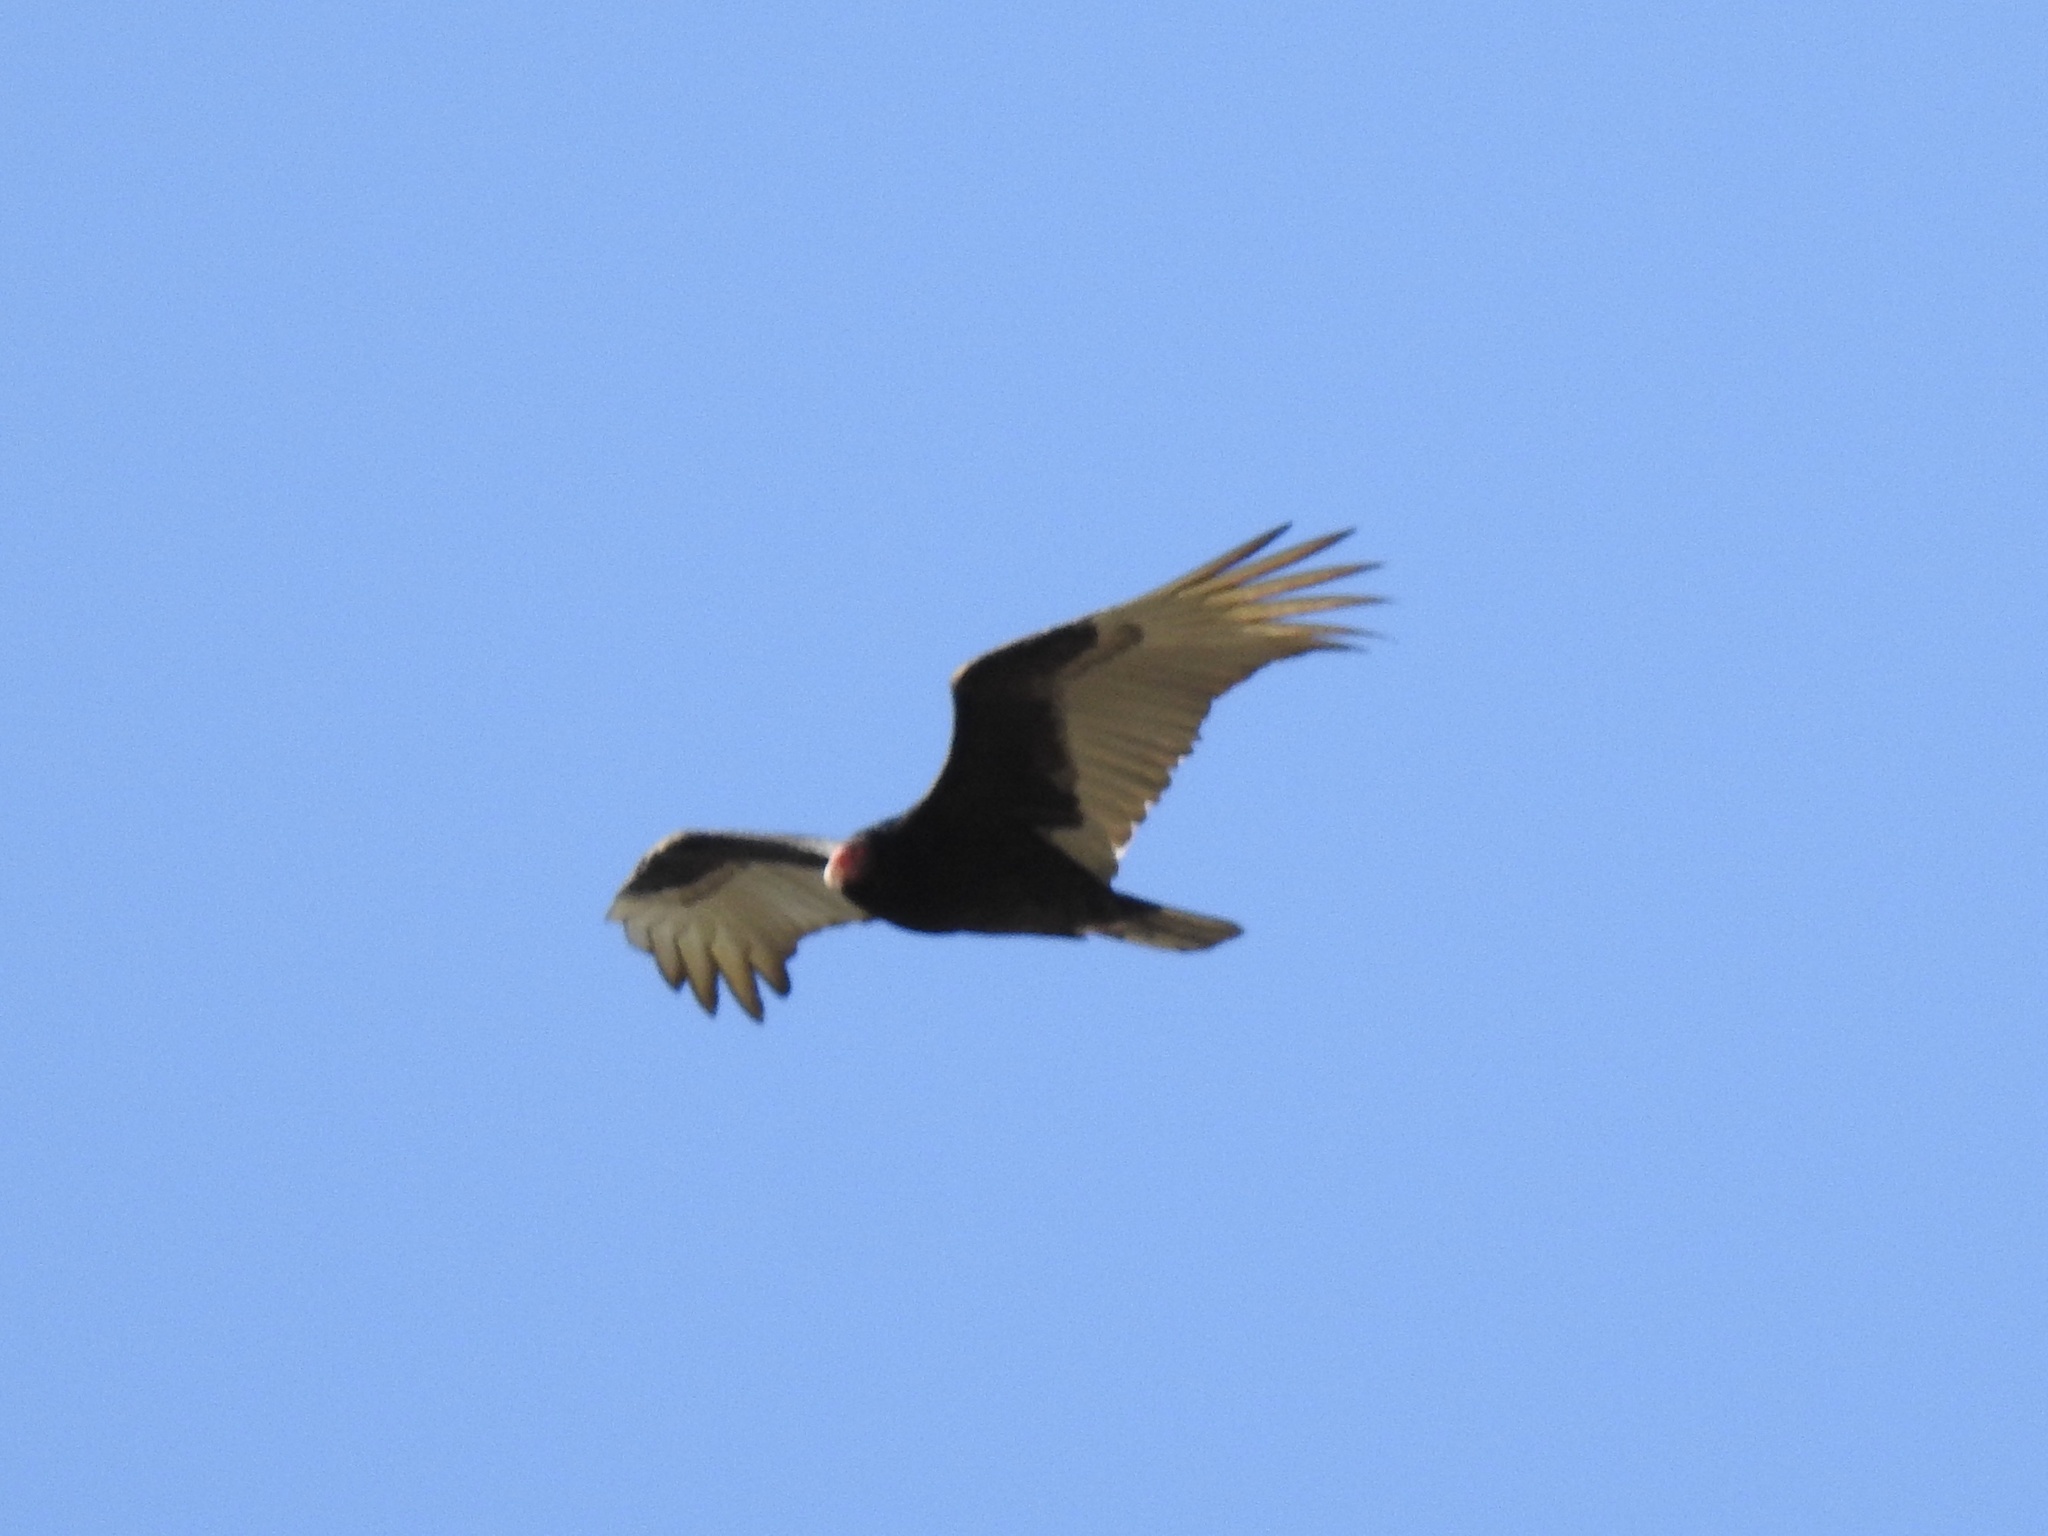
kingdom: Animalia
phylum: Chordata
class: Aves
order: Accipitriformes
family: Cathartidae
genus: Cathartes
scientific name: Cathartes aura
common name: Turkey vulture
